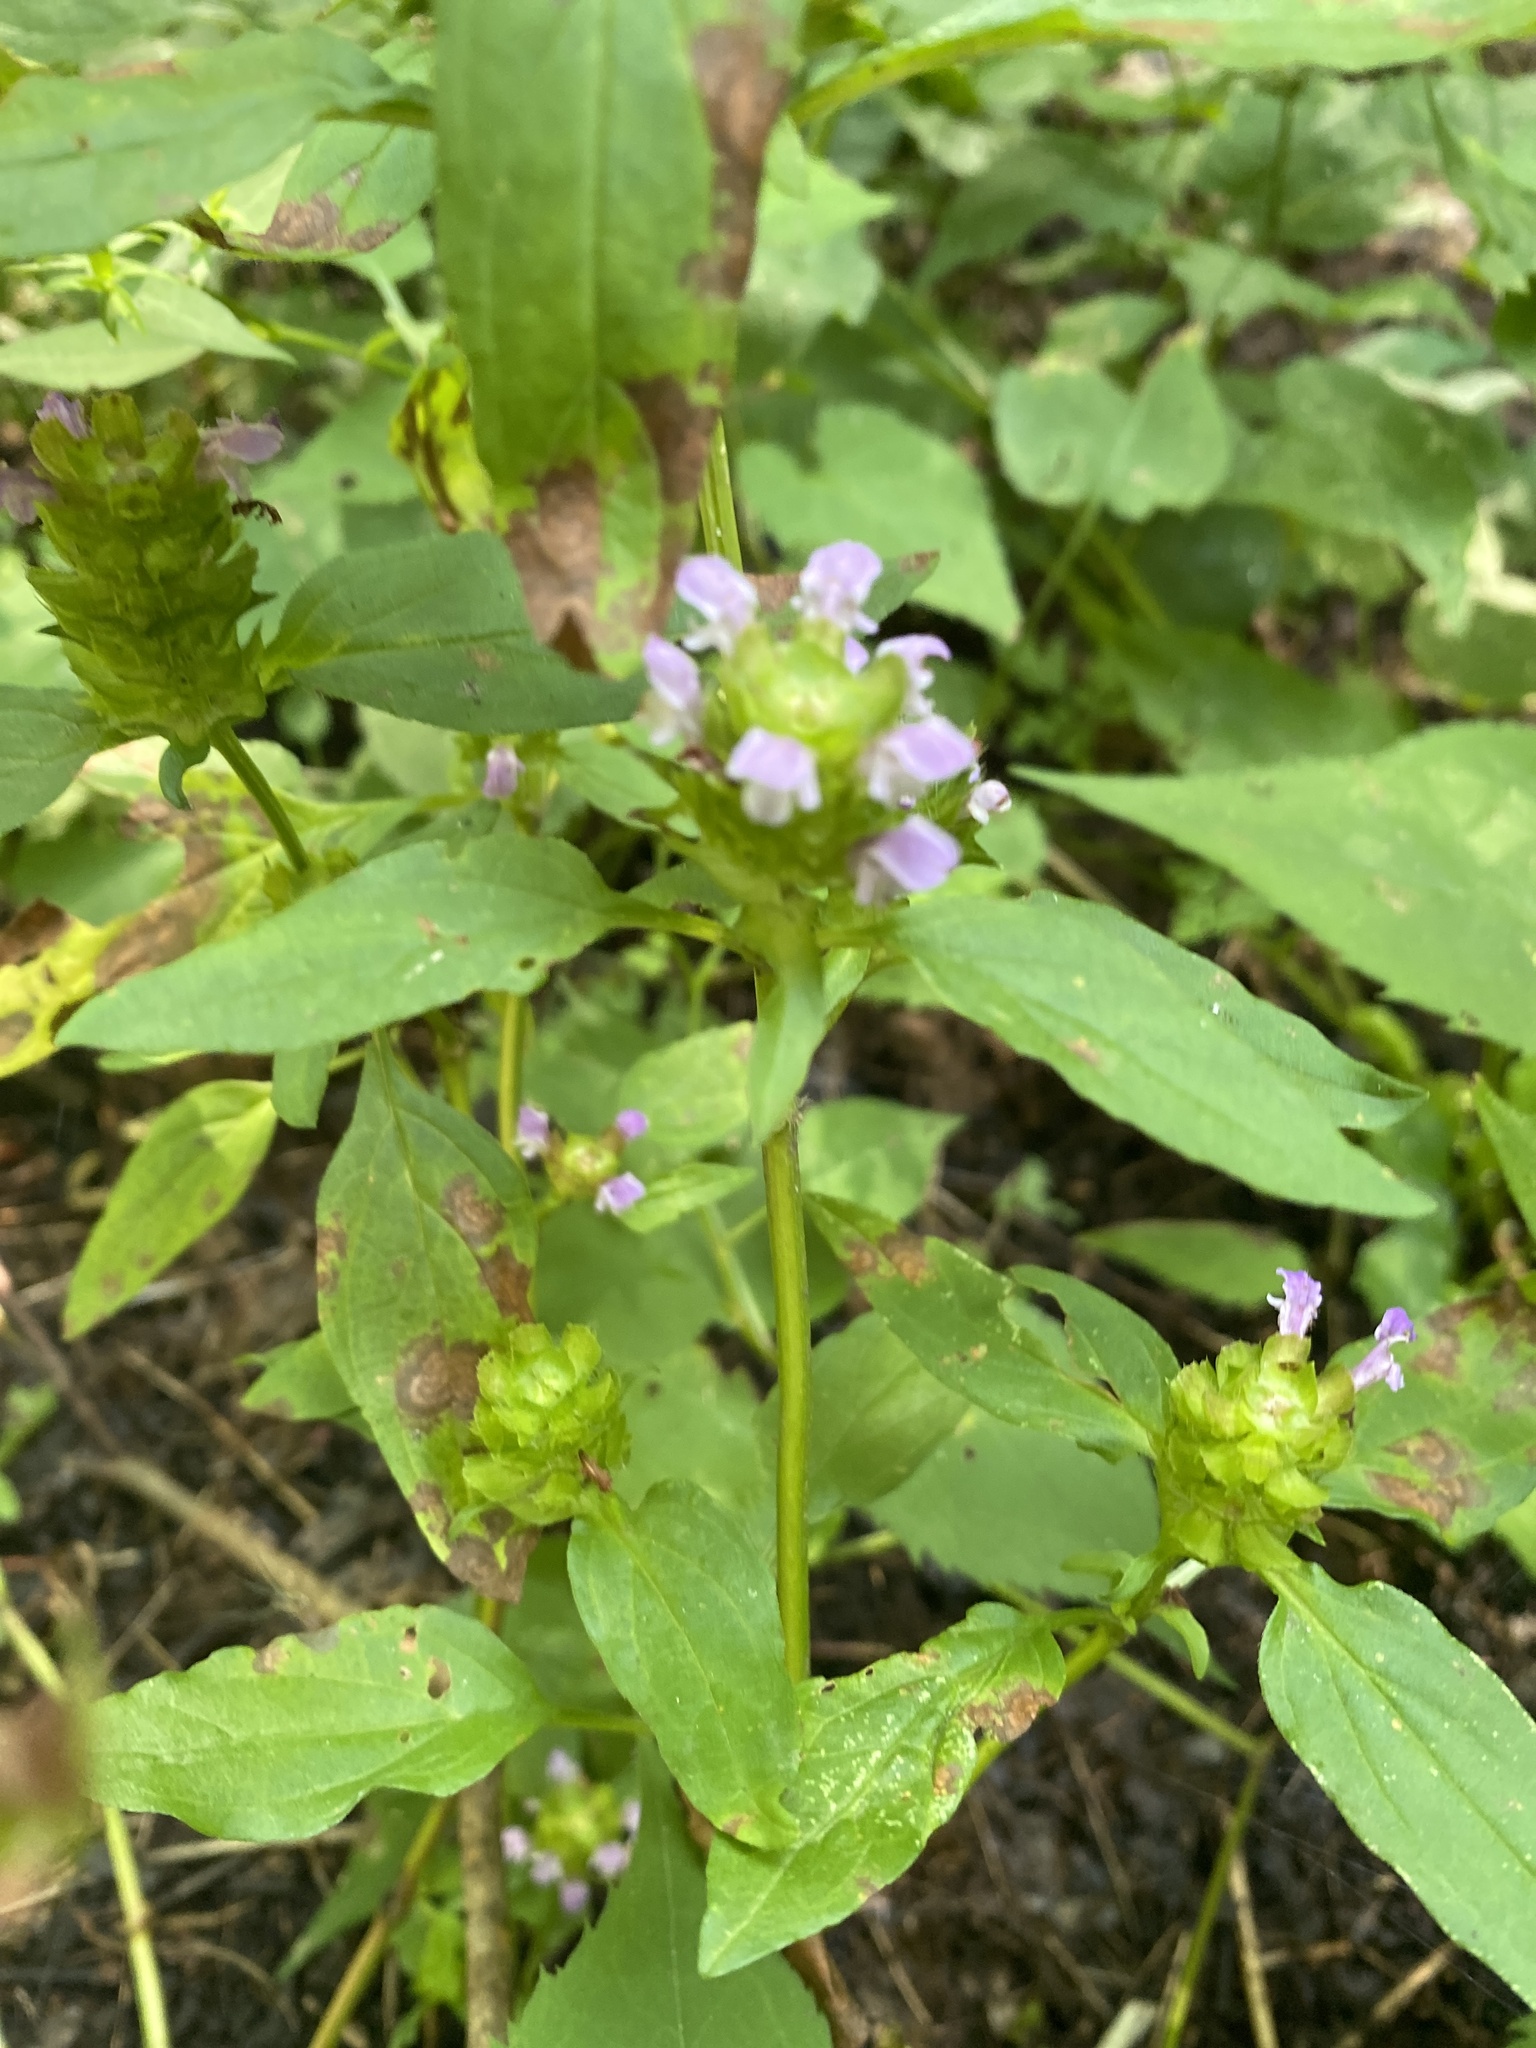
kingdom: Plantae
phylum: Tracheophyta
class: Magnoliopsida
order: Lamiales
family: Lamiaceae
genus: Prunella
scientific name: Prunella vulgaris
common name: Heal-all
